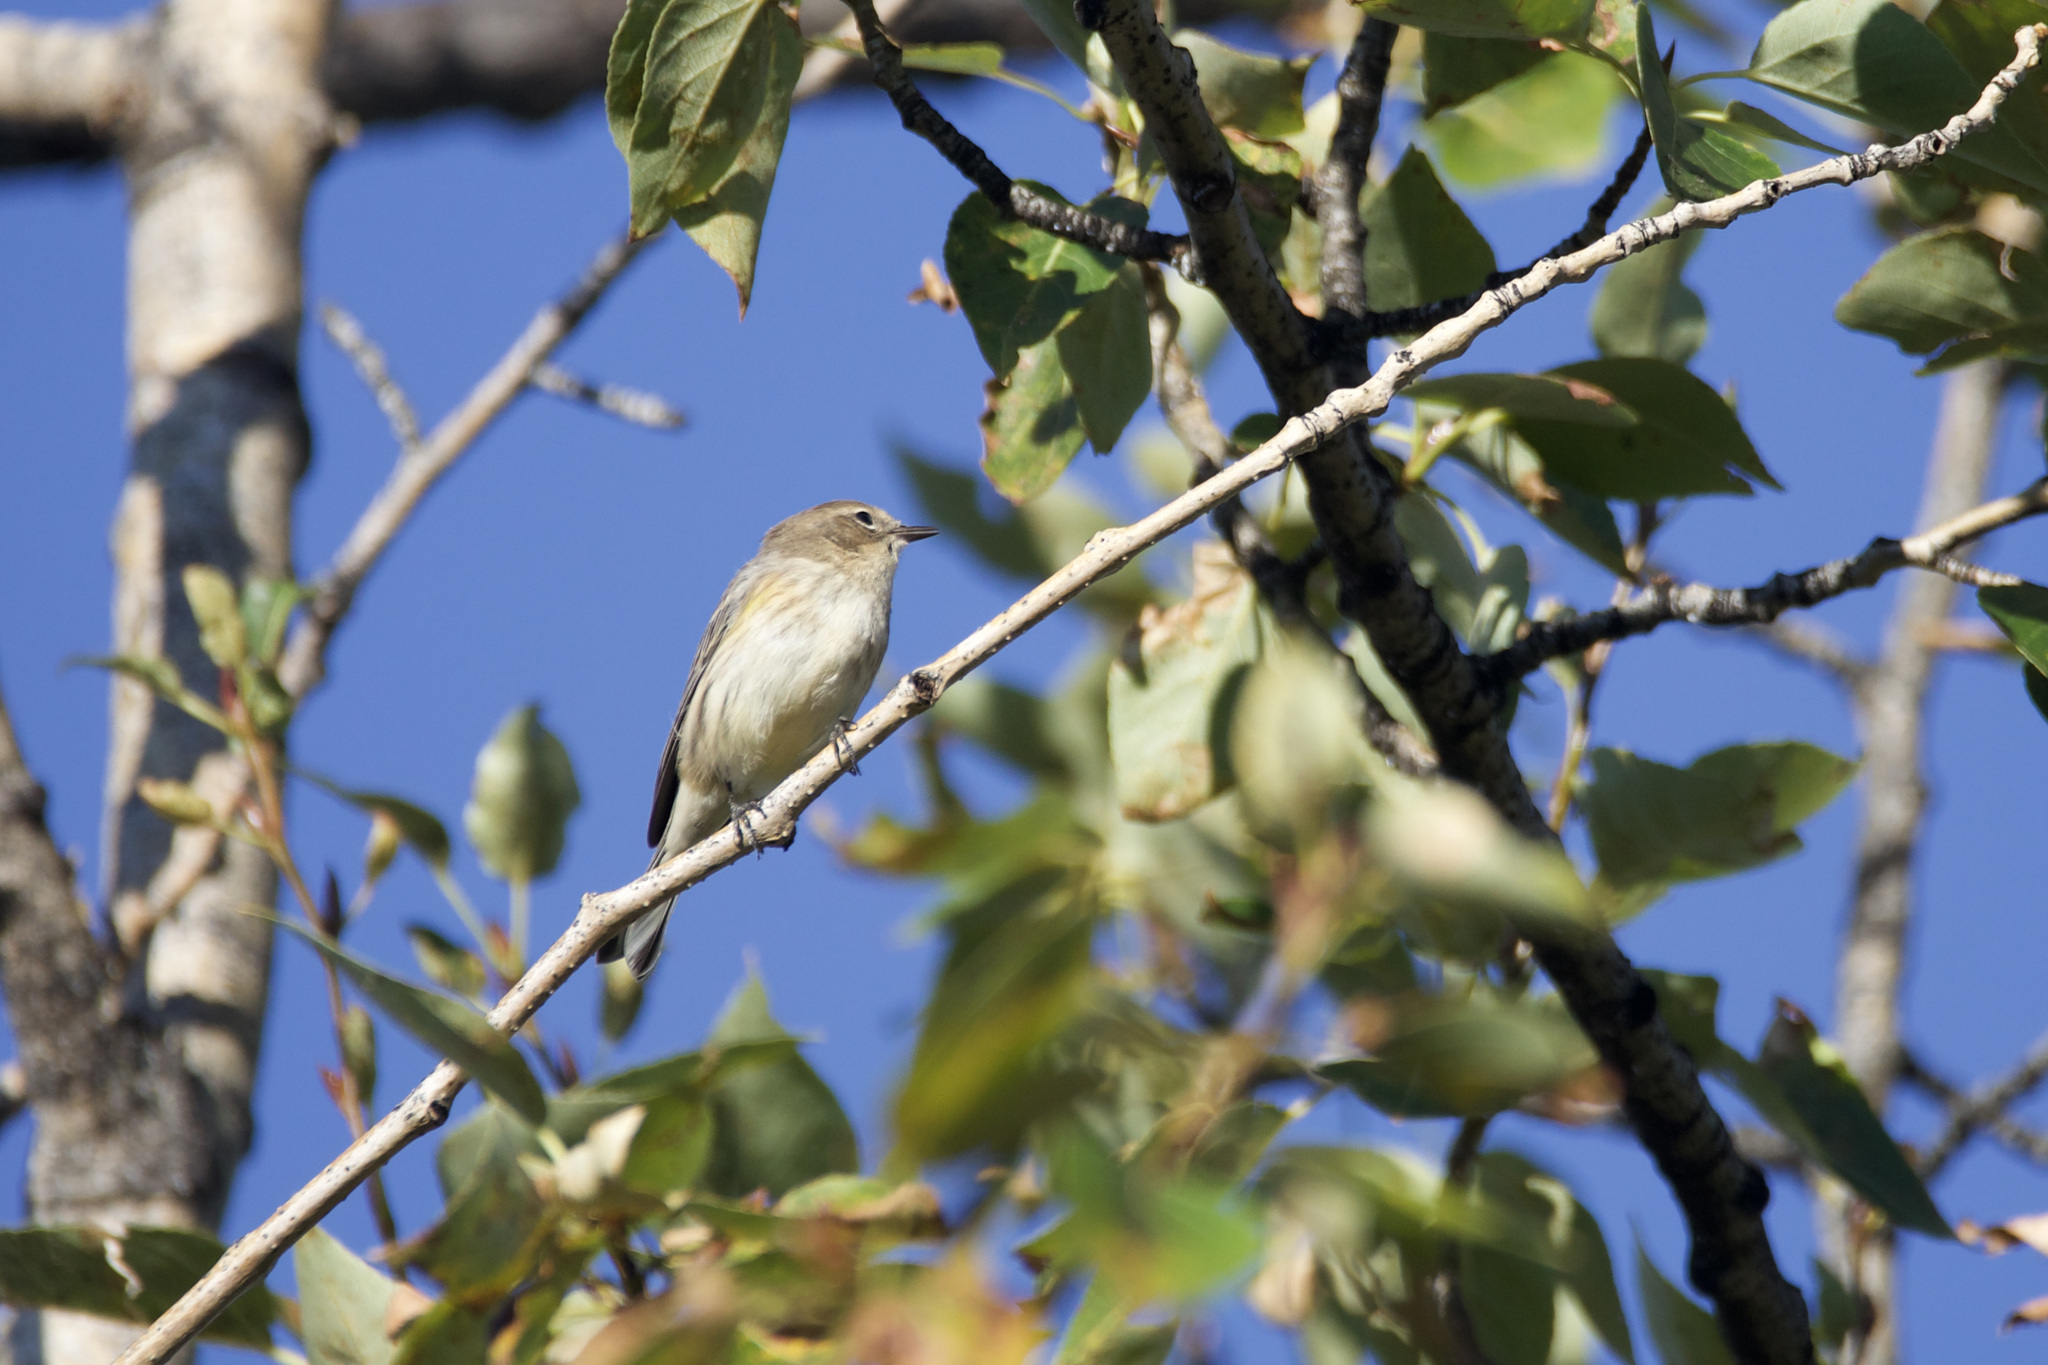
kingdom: Animalia
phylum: Chordata
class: Aves
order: Passeriformes
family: Parulidae
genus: Setophaga
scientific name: Setophaga coronata
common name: Myrtle warbler
